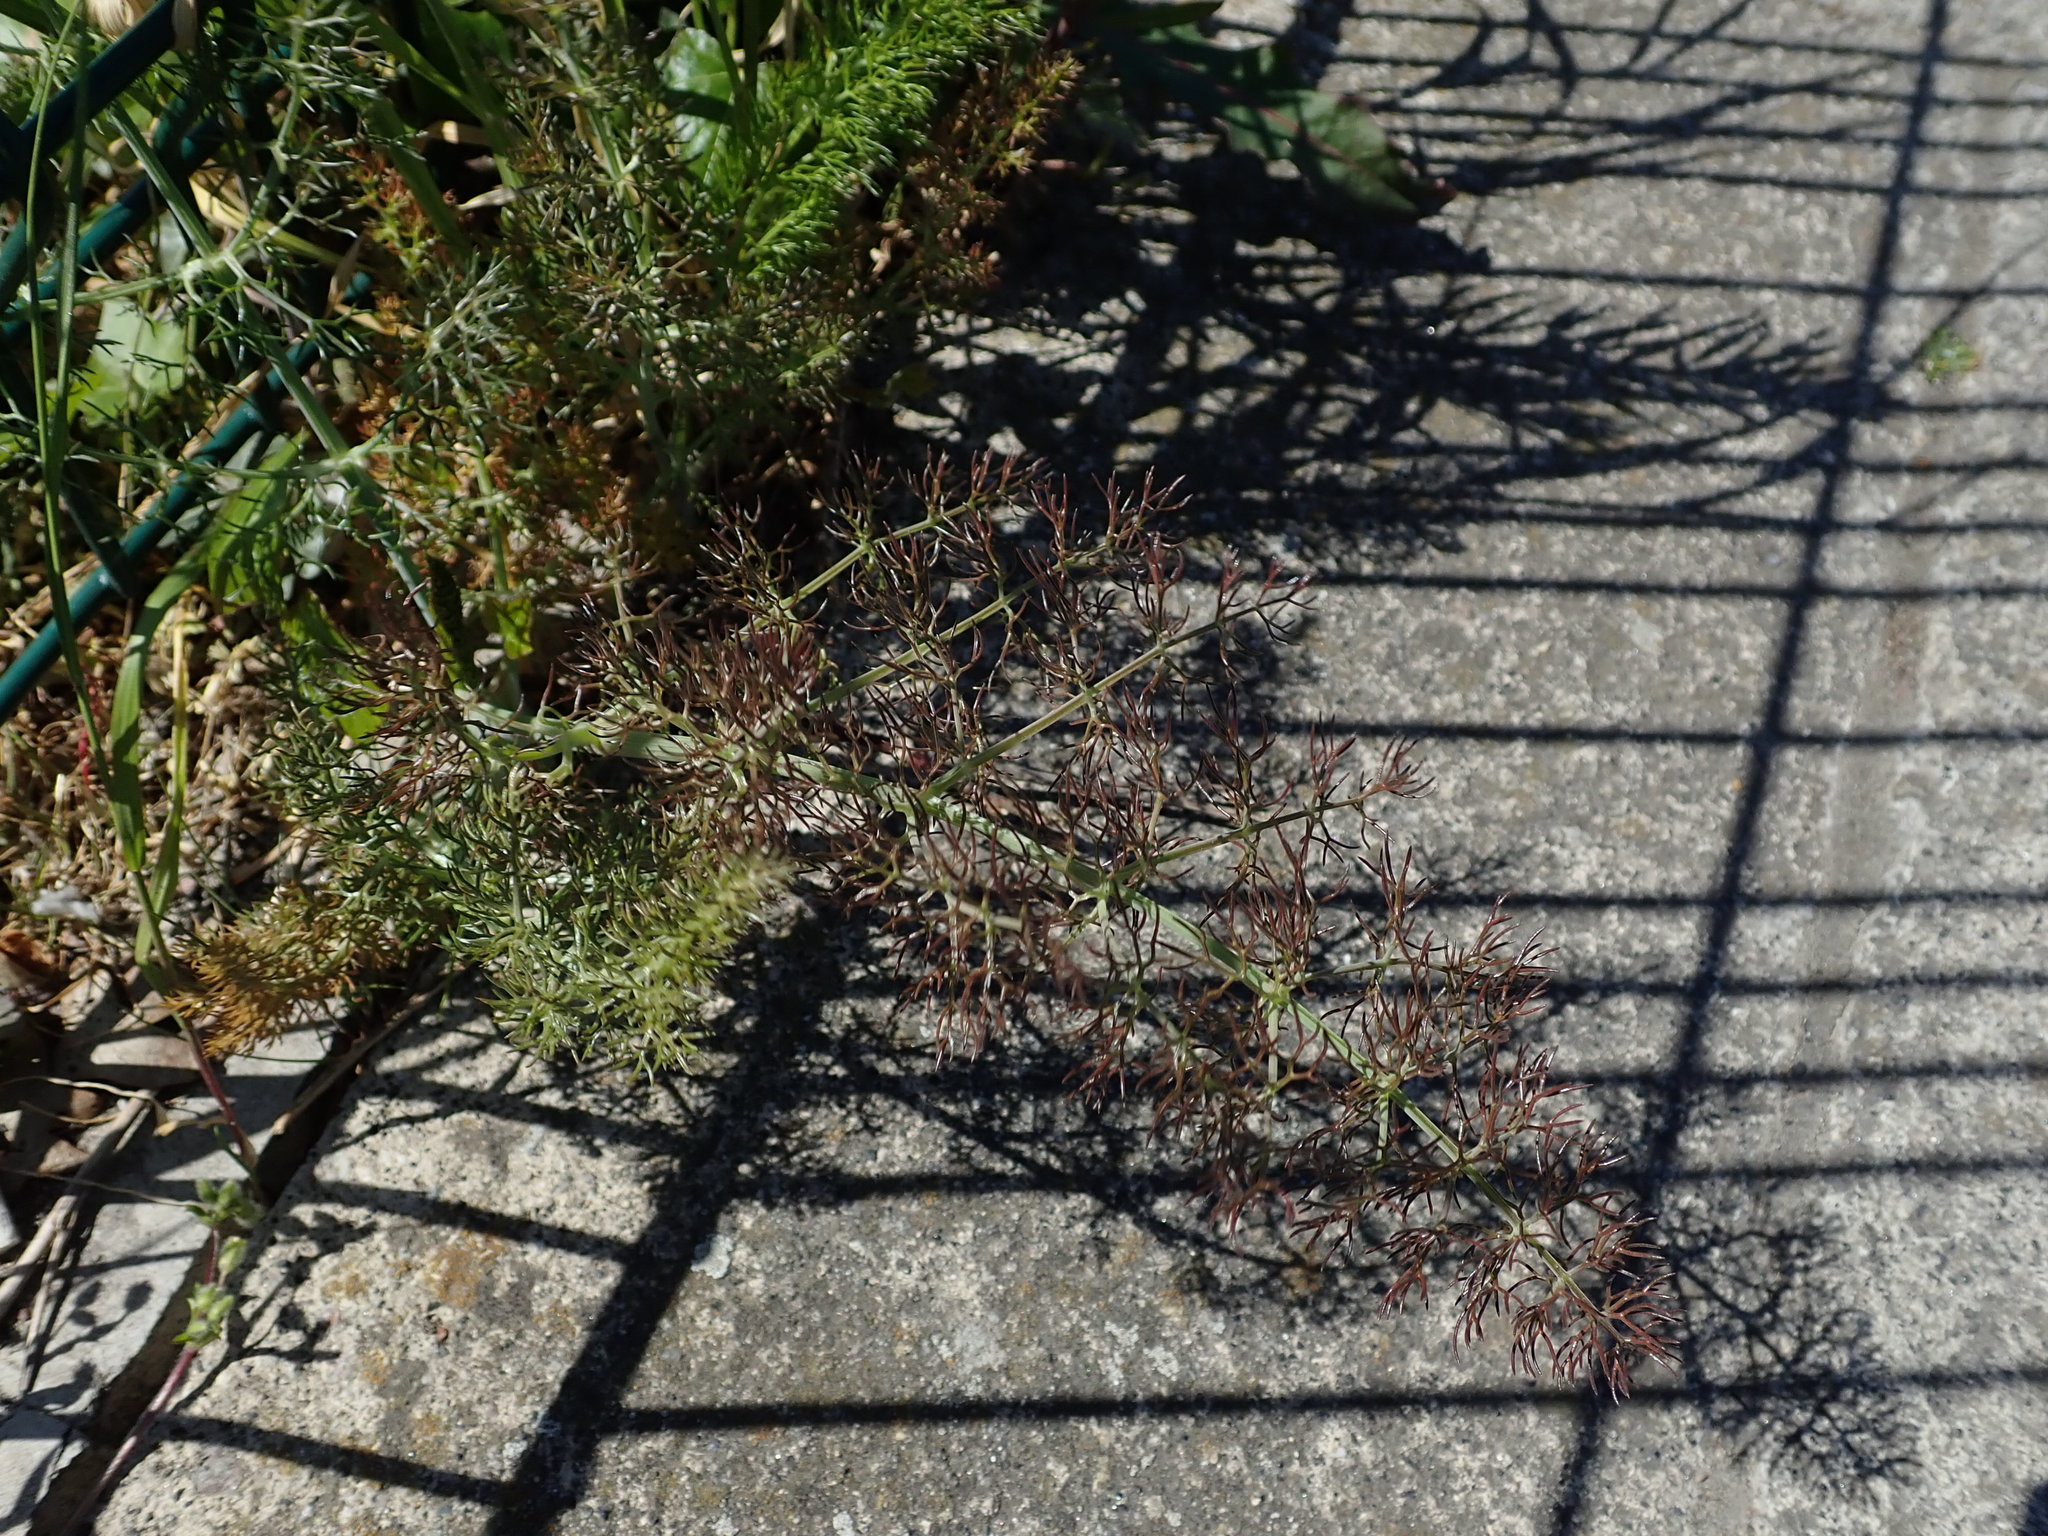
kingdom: Plantae
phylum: Tracheophyta
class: Magnoliopsida
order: Apiales
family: Apiaceae
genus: Foeniculum
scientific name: Foeniculum vulgare
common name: Fennel
